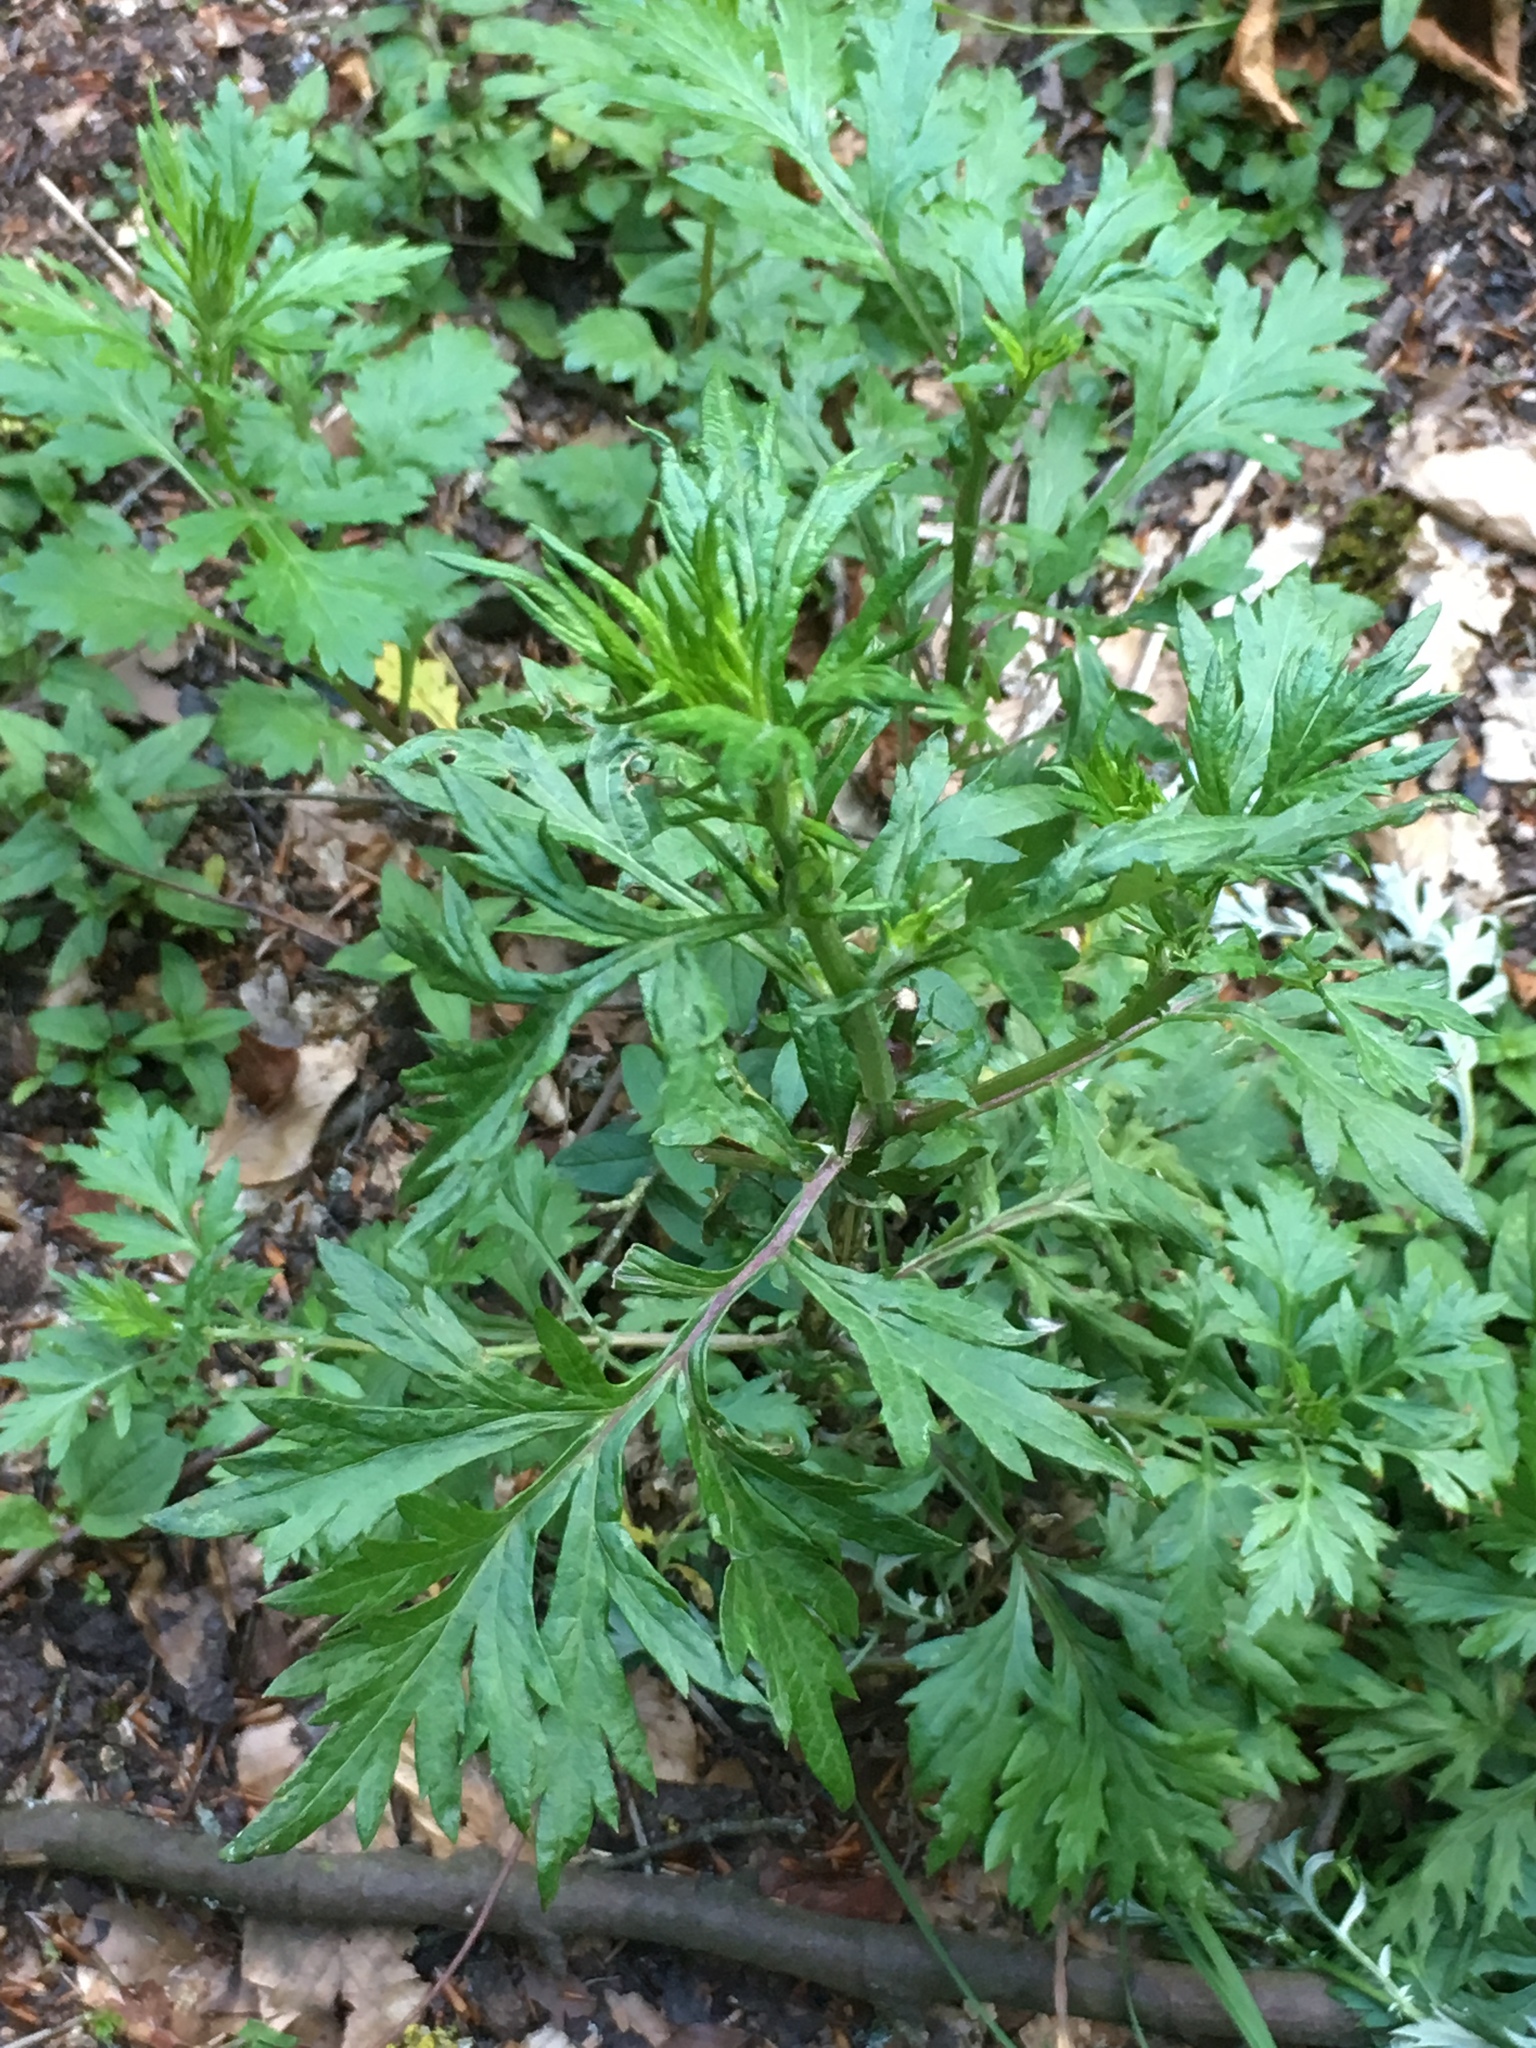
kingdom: Plantae
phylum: Tracheophyta
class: Magnoliopsida
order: Asterales
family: Asteraceae
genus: Artemisia
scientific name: Artemisia vulgaris
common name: Mugwort
